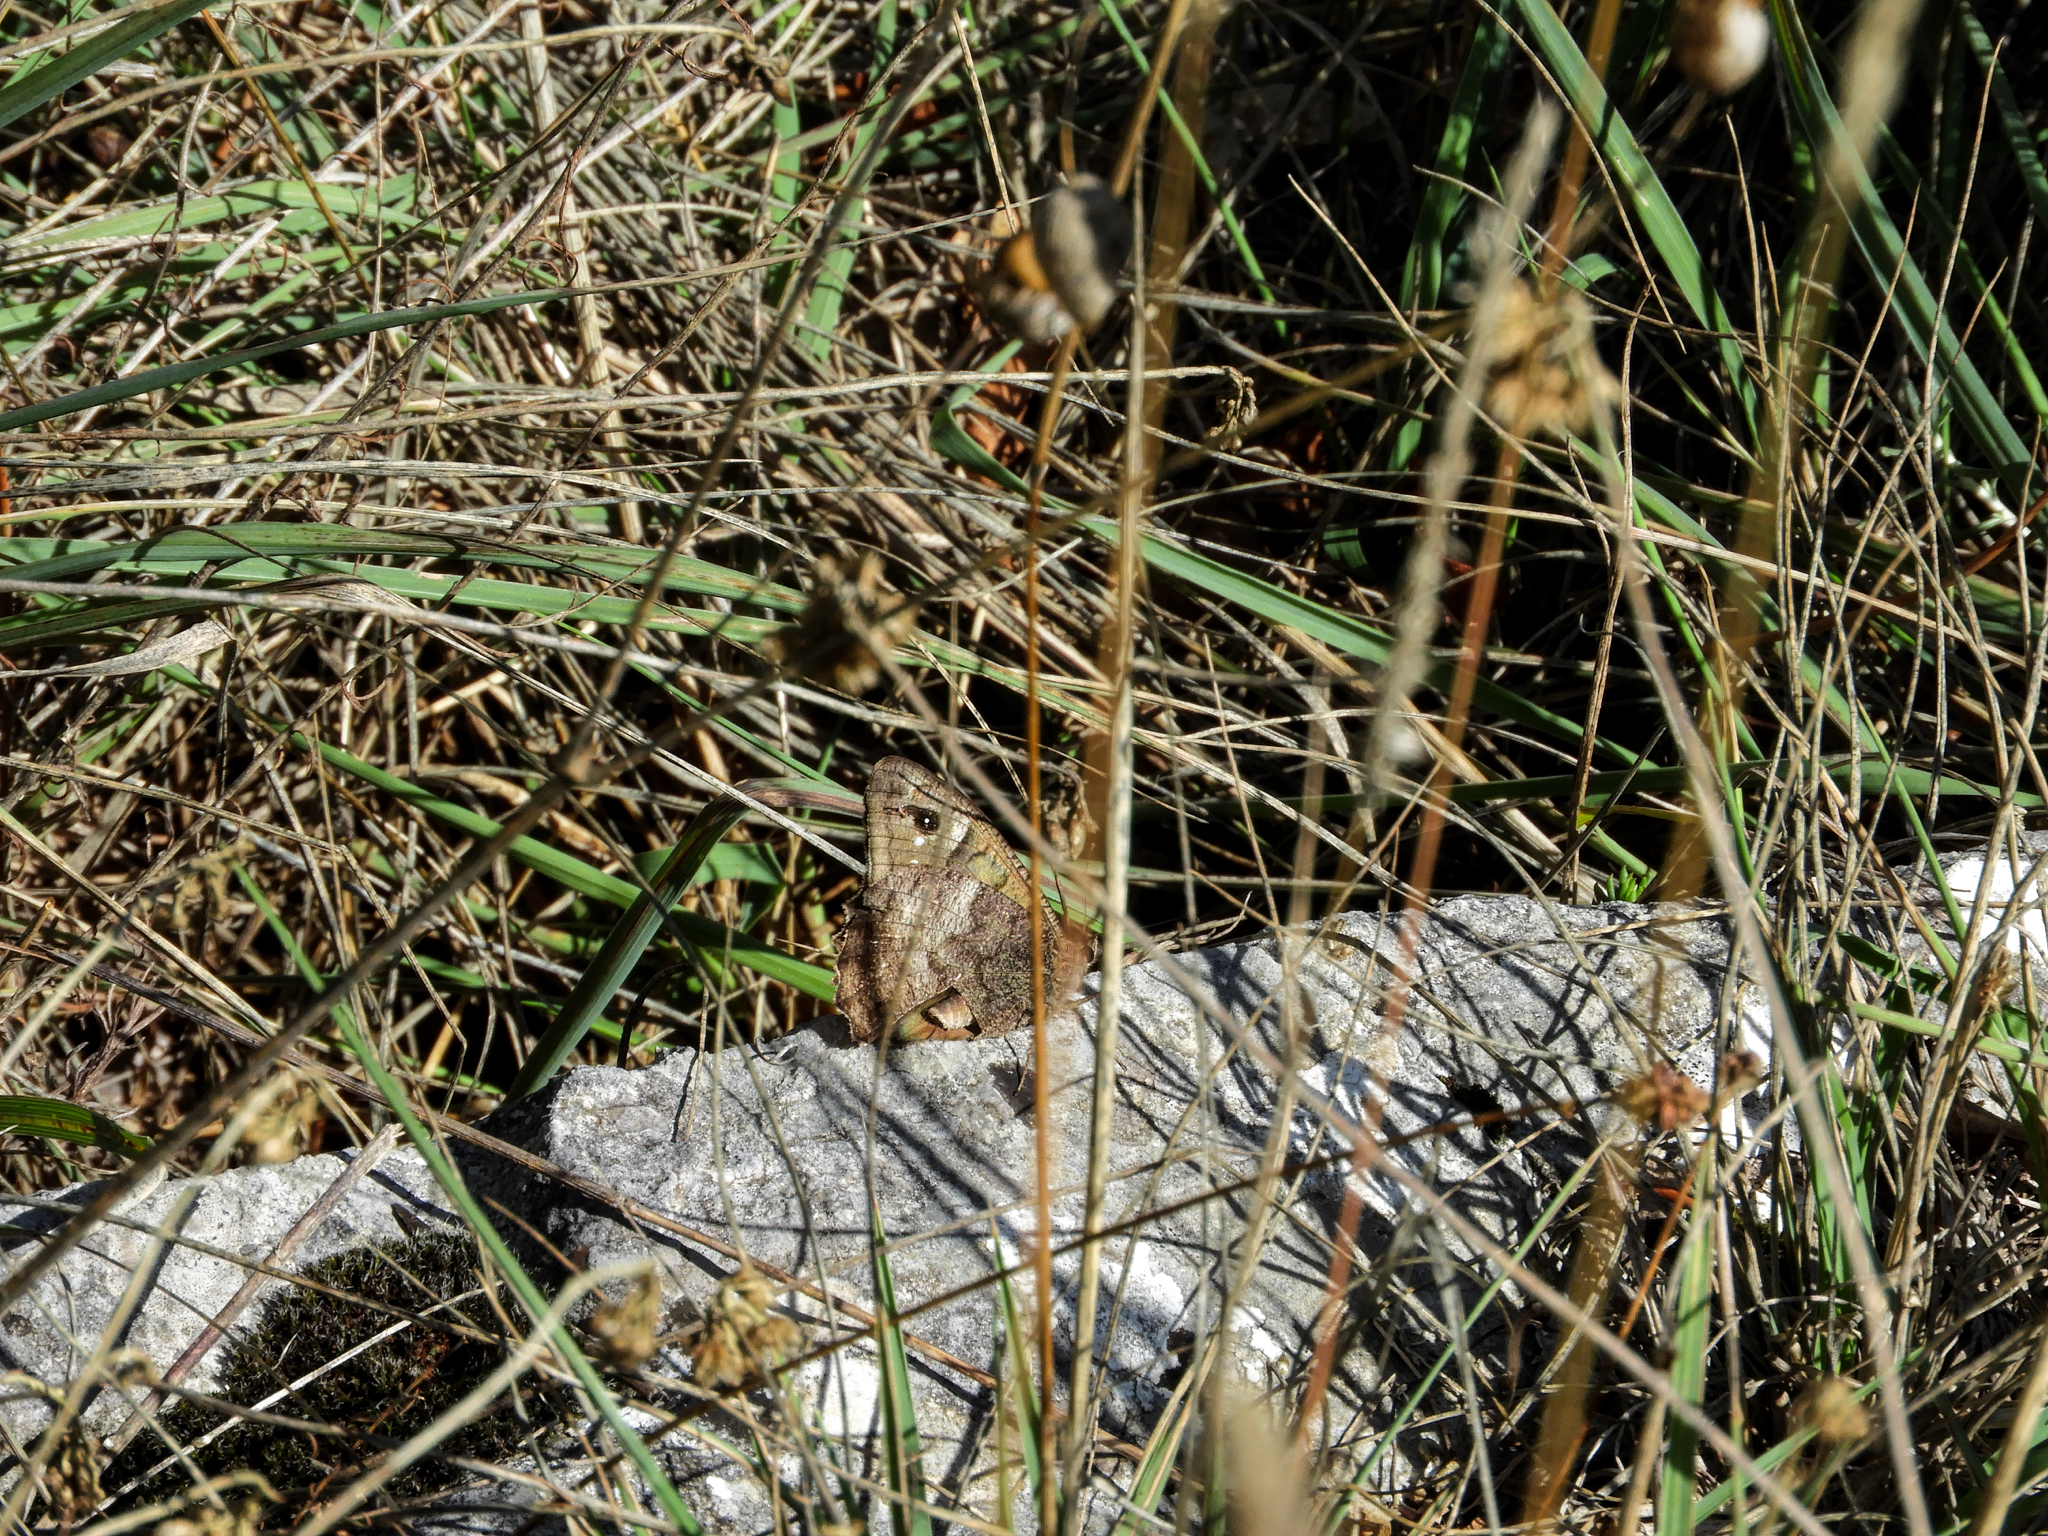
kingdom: Animalia
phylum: Arthropoda
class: Insecta
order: Lepidoptera
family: Nymphalidae
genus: Hipparchia
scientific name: Hipparchia statilinus
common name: Tree grayling
